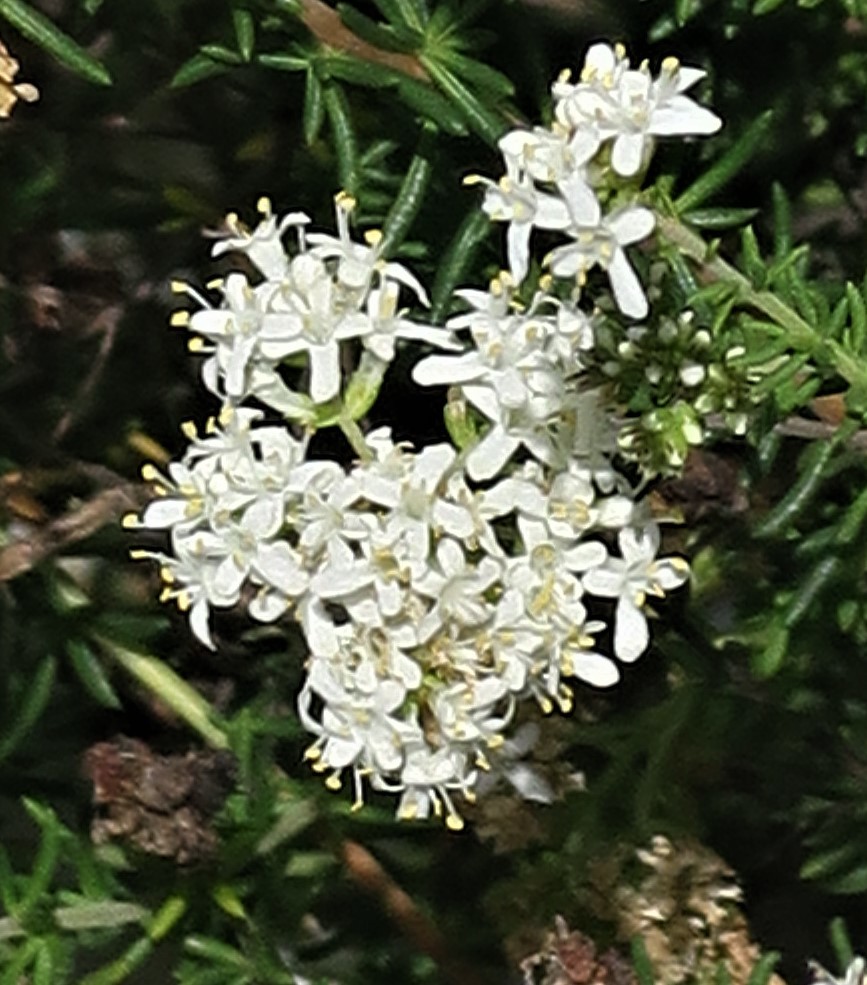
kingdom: Plantae
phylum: Tracheophyta
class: Magnoliopsida
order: Lamiales
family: Scrophulariaceae
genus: Selago
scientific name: Selago corymbosa
